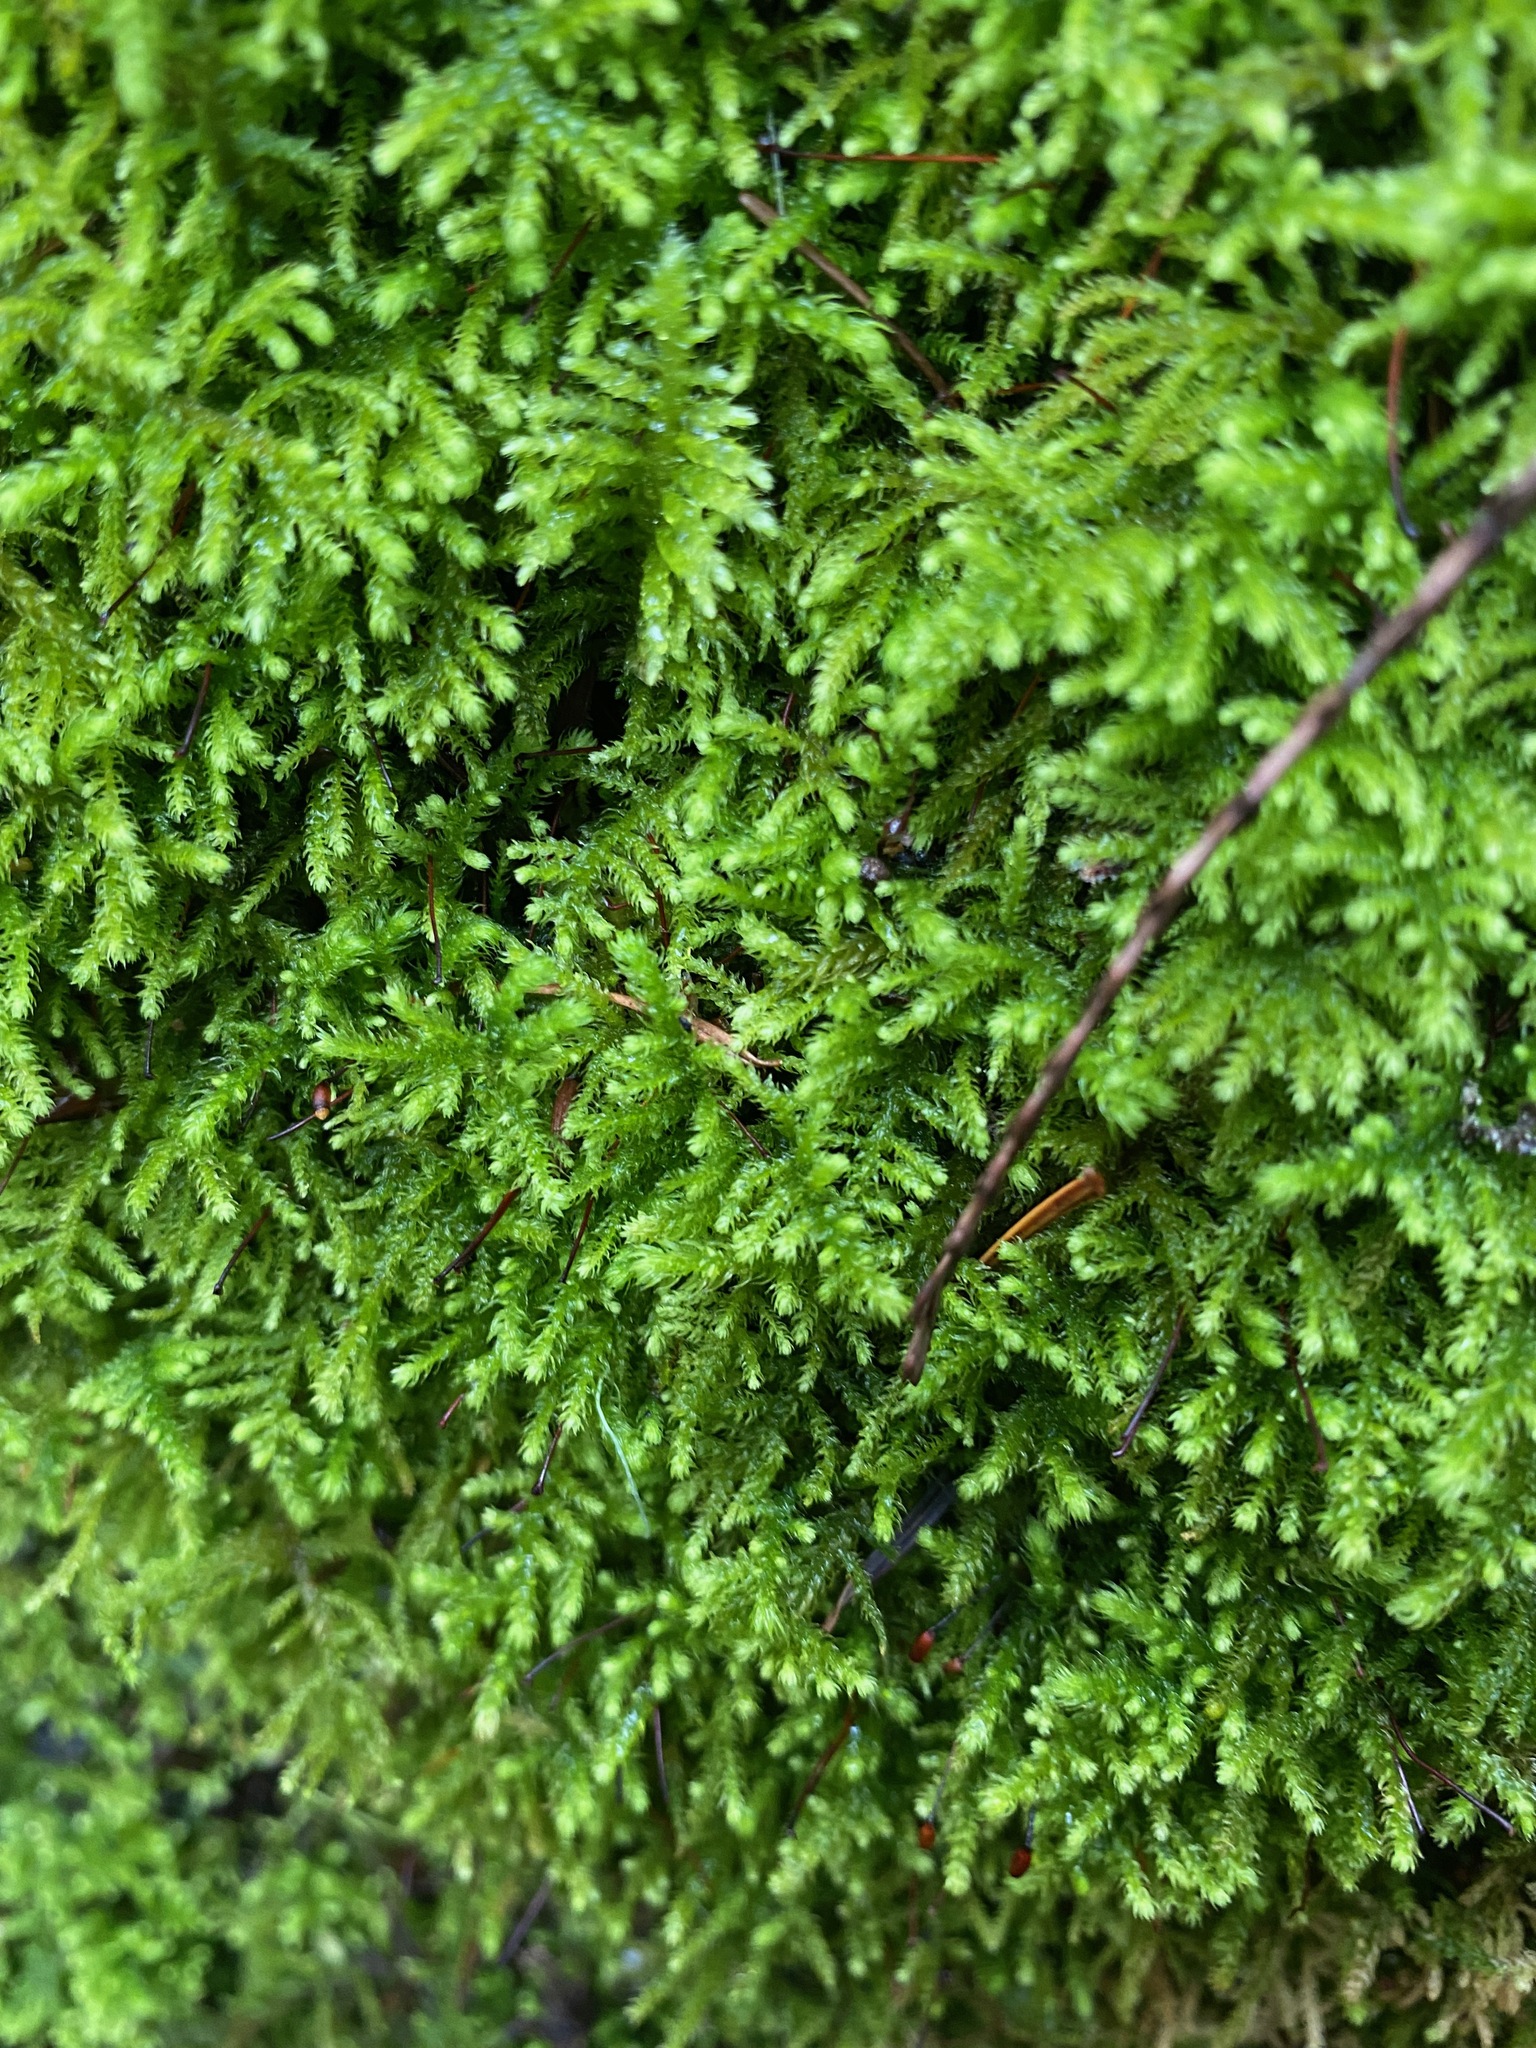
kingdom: Plantae
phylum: Bryophyta
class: Bryopsida
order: Hypnales
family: Brachytheciaceae
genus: Kindbergia
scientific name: Kindbergia oregana
